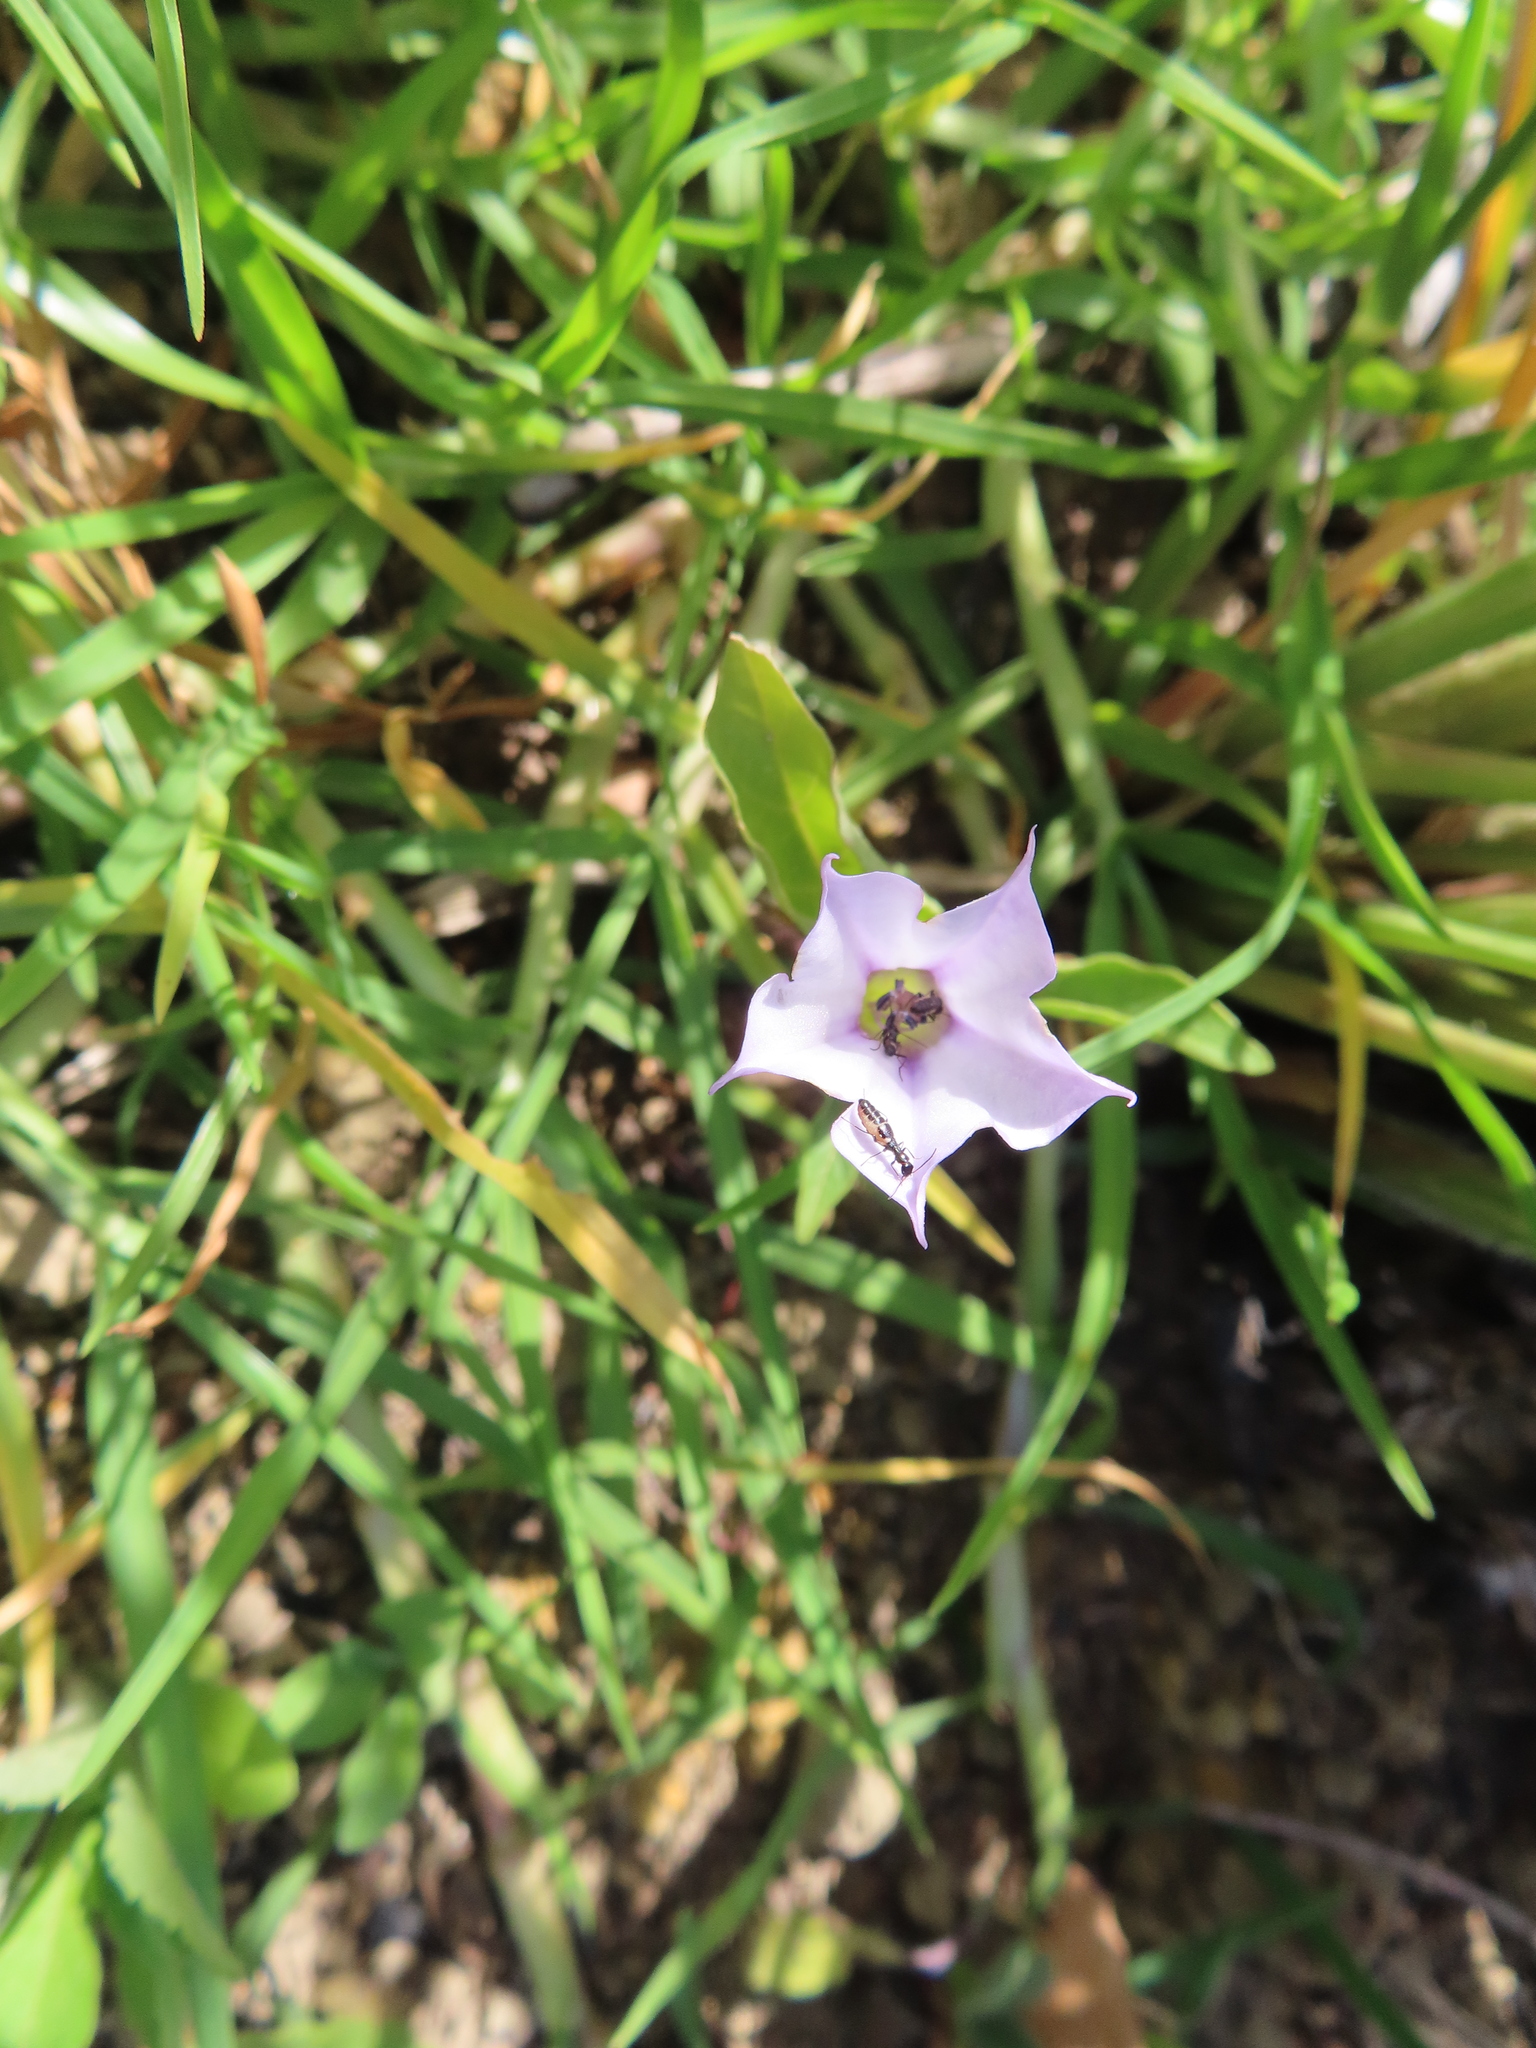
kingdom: Plantae
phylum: Tracheophyta
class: Magnoliopsida
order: Solanales
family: Solanaceae
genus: Datura
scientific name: Datura stramonium
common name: Thorn-apple
